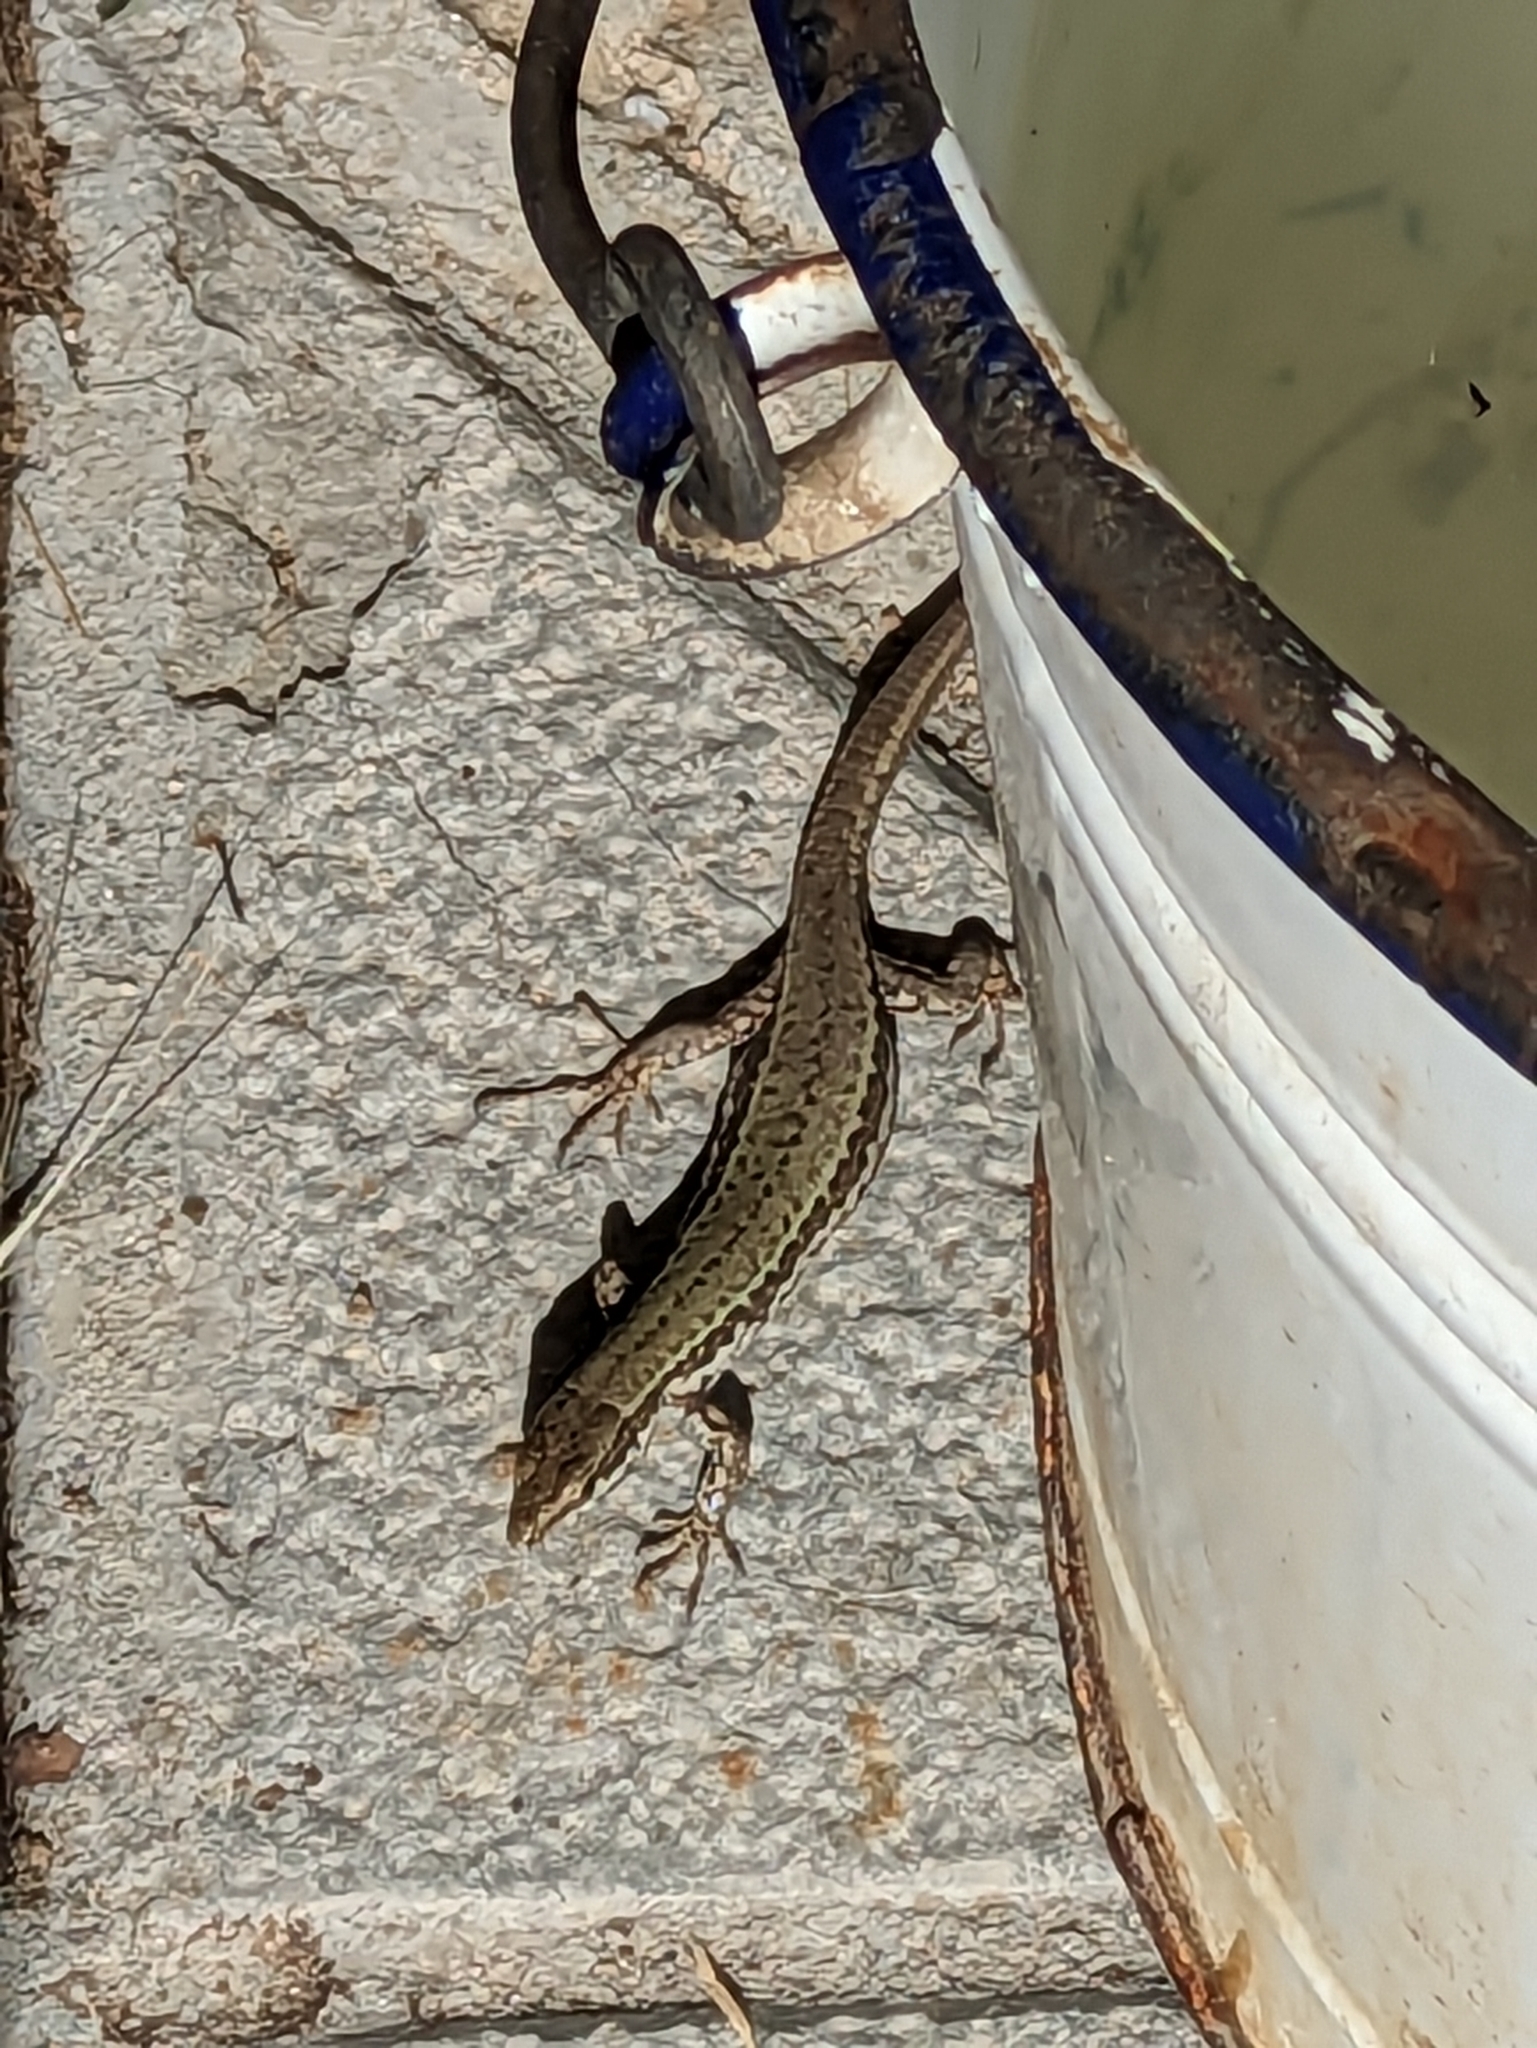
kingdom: Animalia
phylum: Chordata
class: Squamata
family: Lacertidae
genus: Podarcis
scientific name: Podarcis muralis
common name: Common wall lizard
